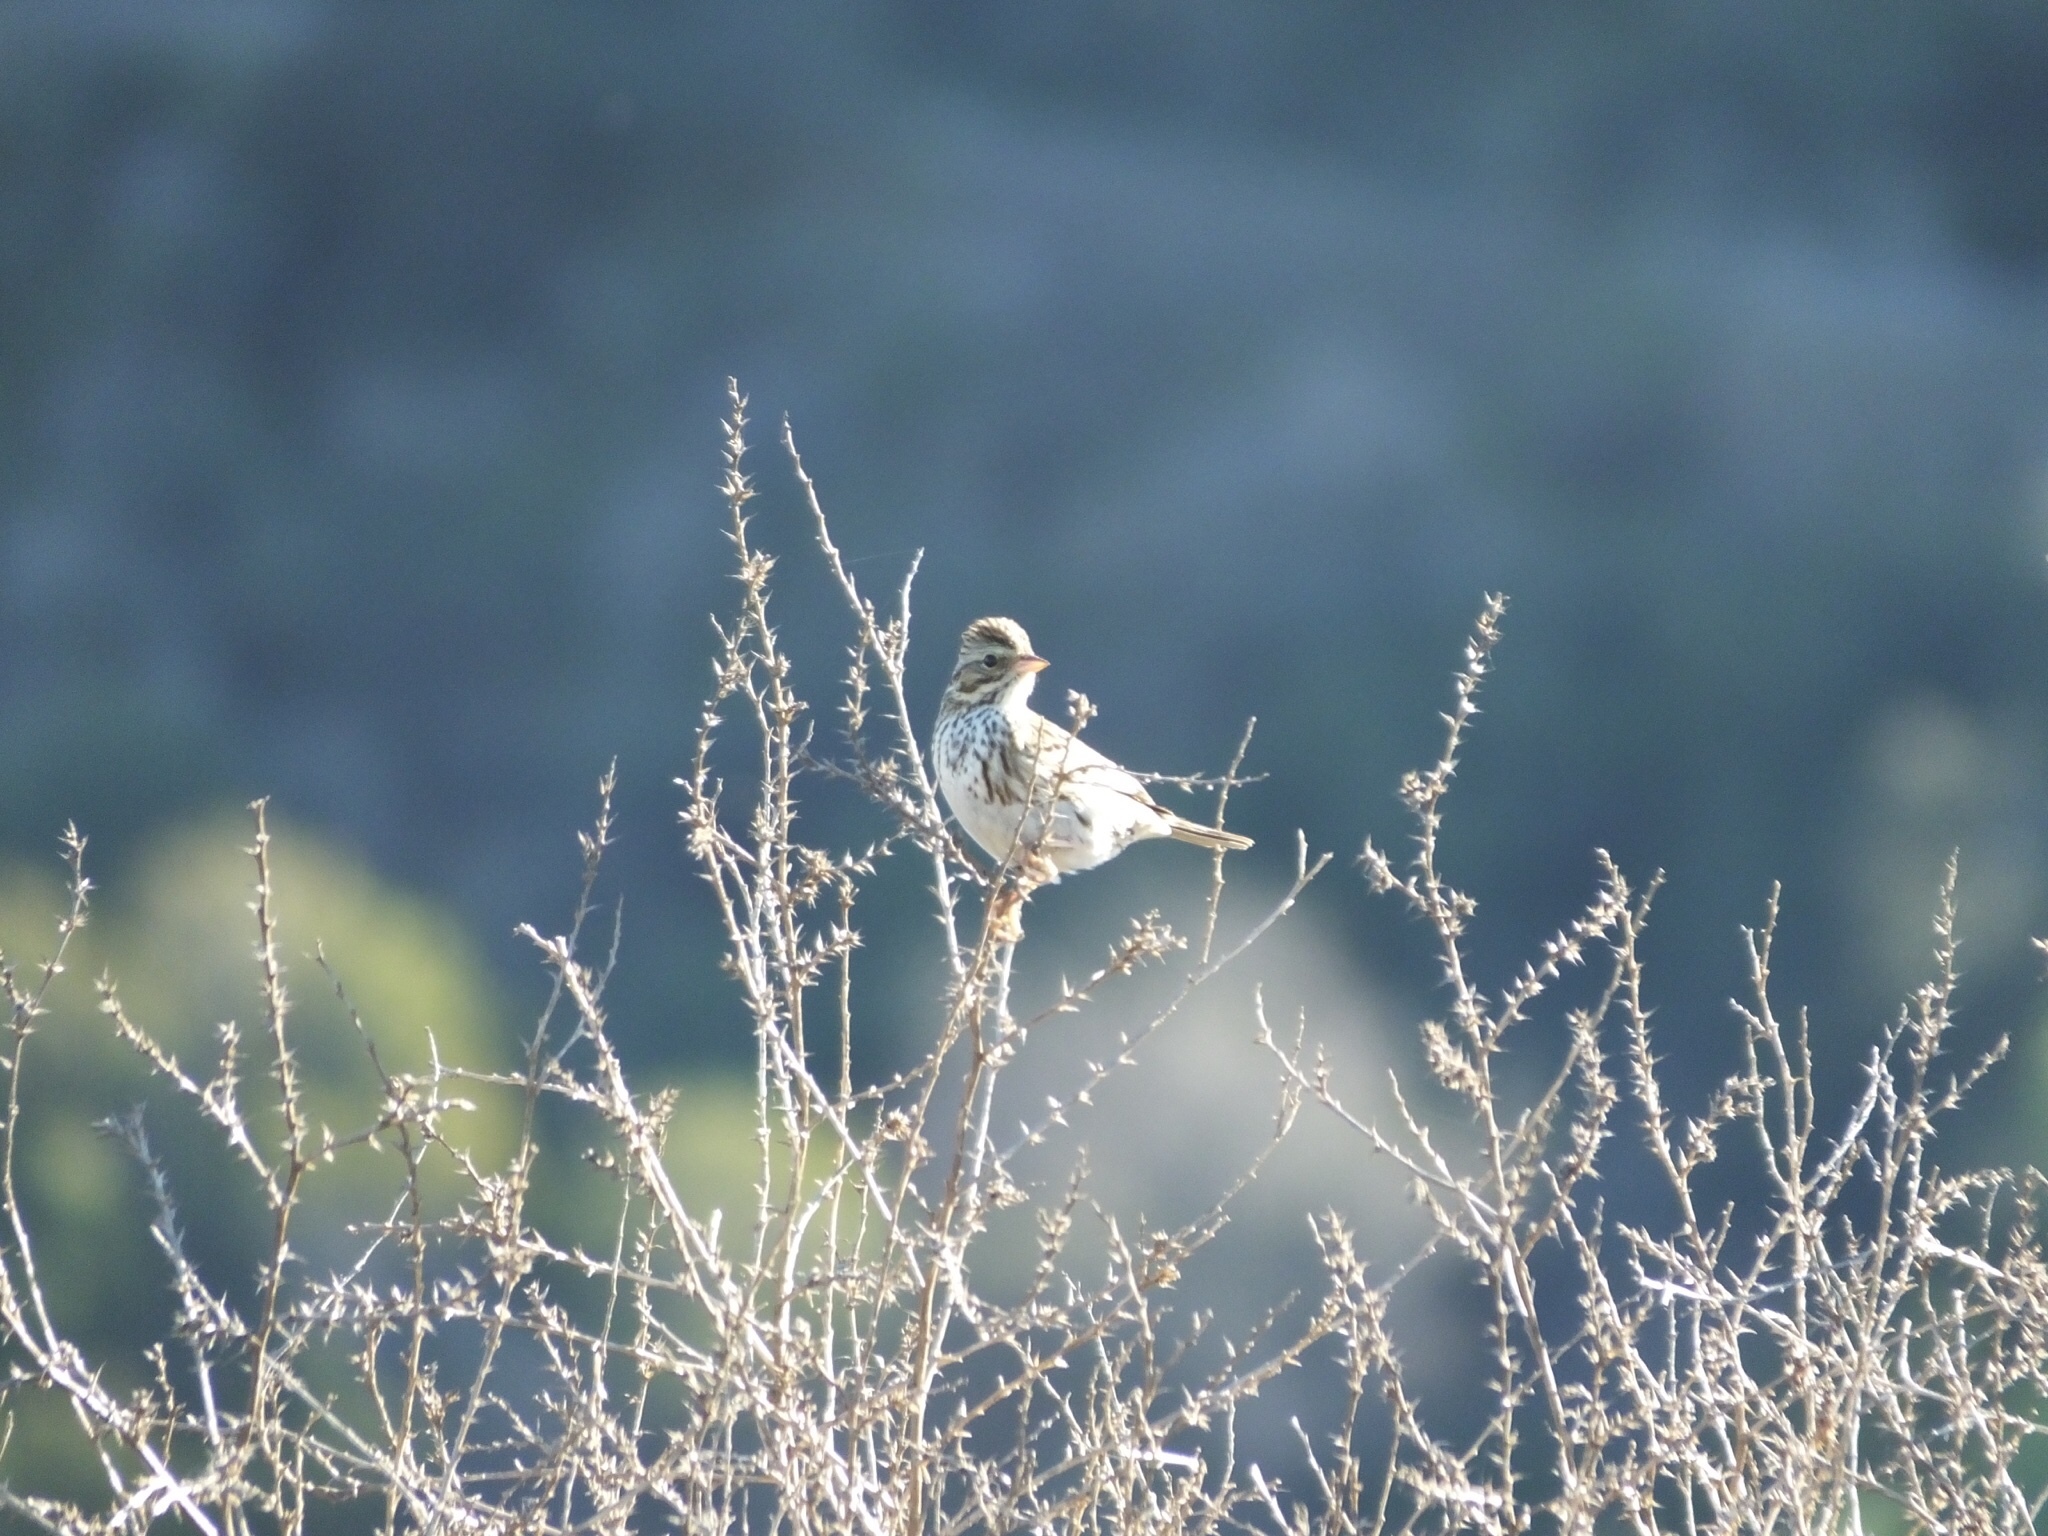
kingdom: Animalia
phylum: Chordata
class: Aves
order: Passeriformes
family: Passerellidae
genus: Passerculus
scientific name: Passerculus sandwichensis
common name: Savannah sparrow
